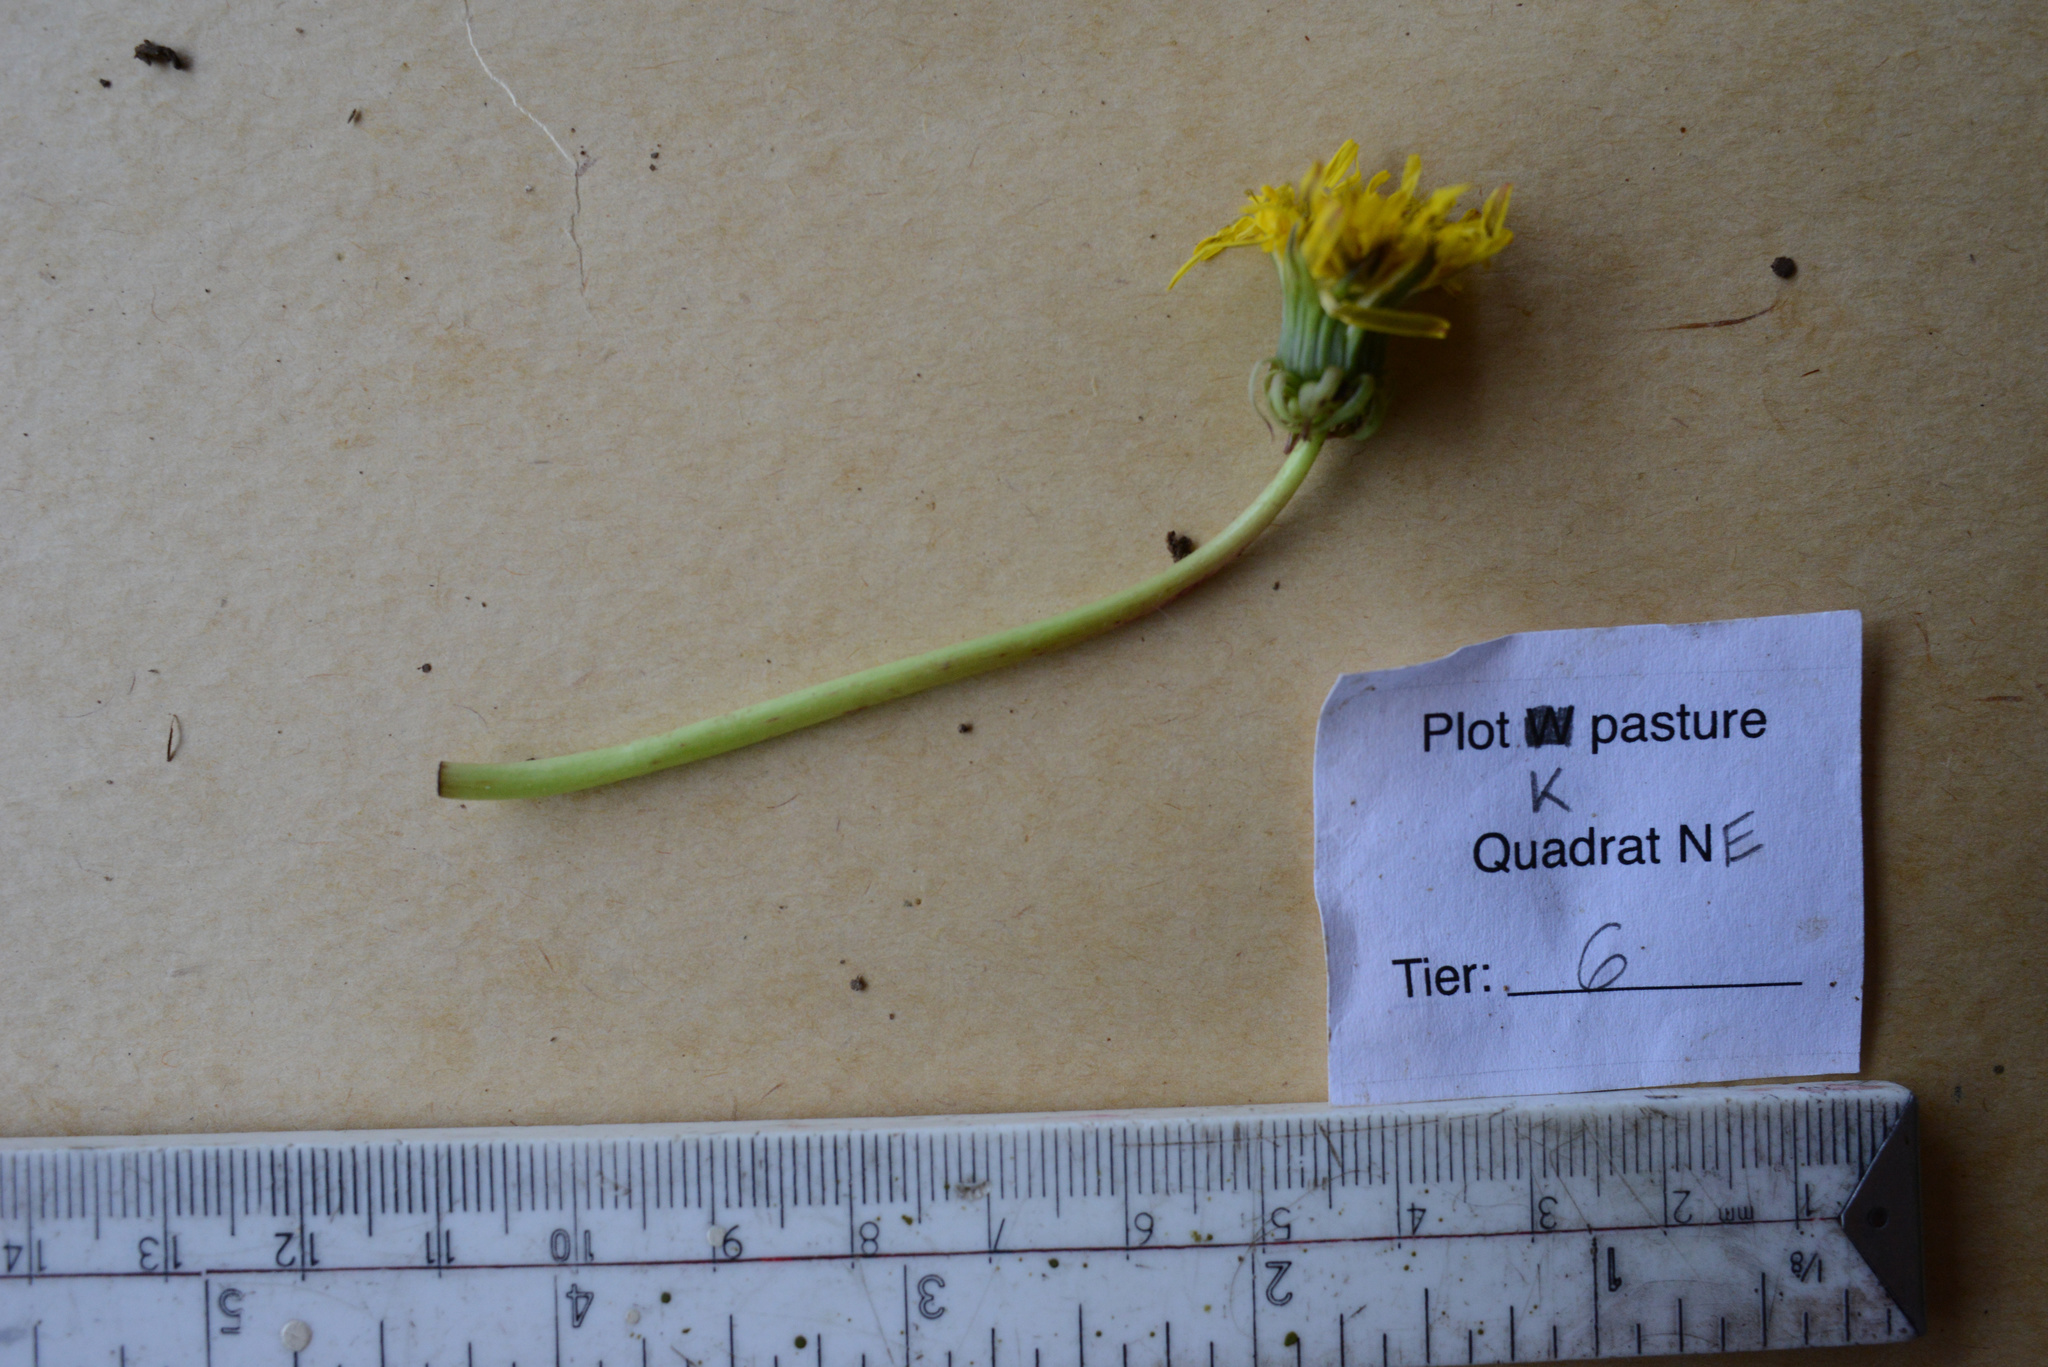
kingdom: Plantae
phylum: Tracheophyta
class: Magnoliopsida
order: Asterales
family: Asteraceae
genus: Taraxacum
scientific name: Taraxacum officinale
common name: Common dandelion
